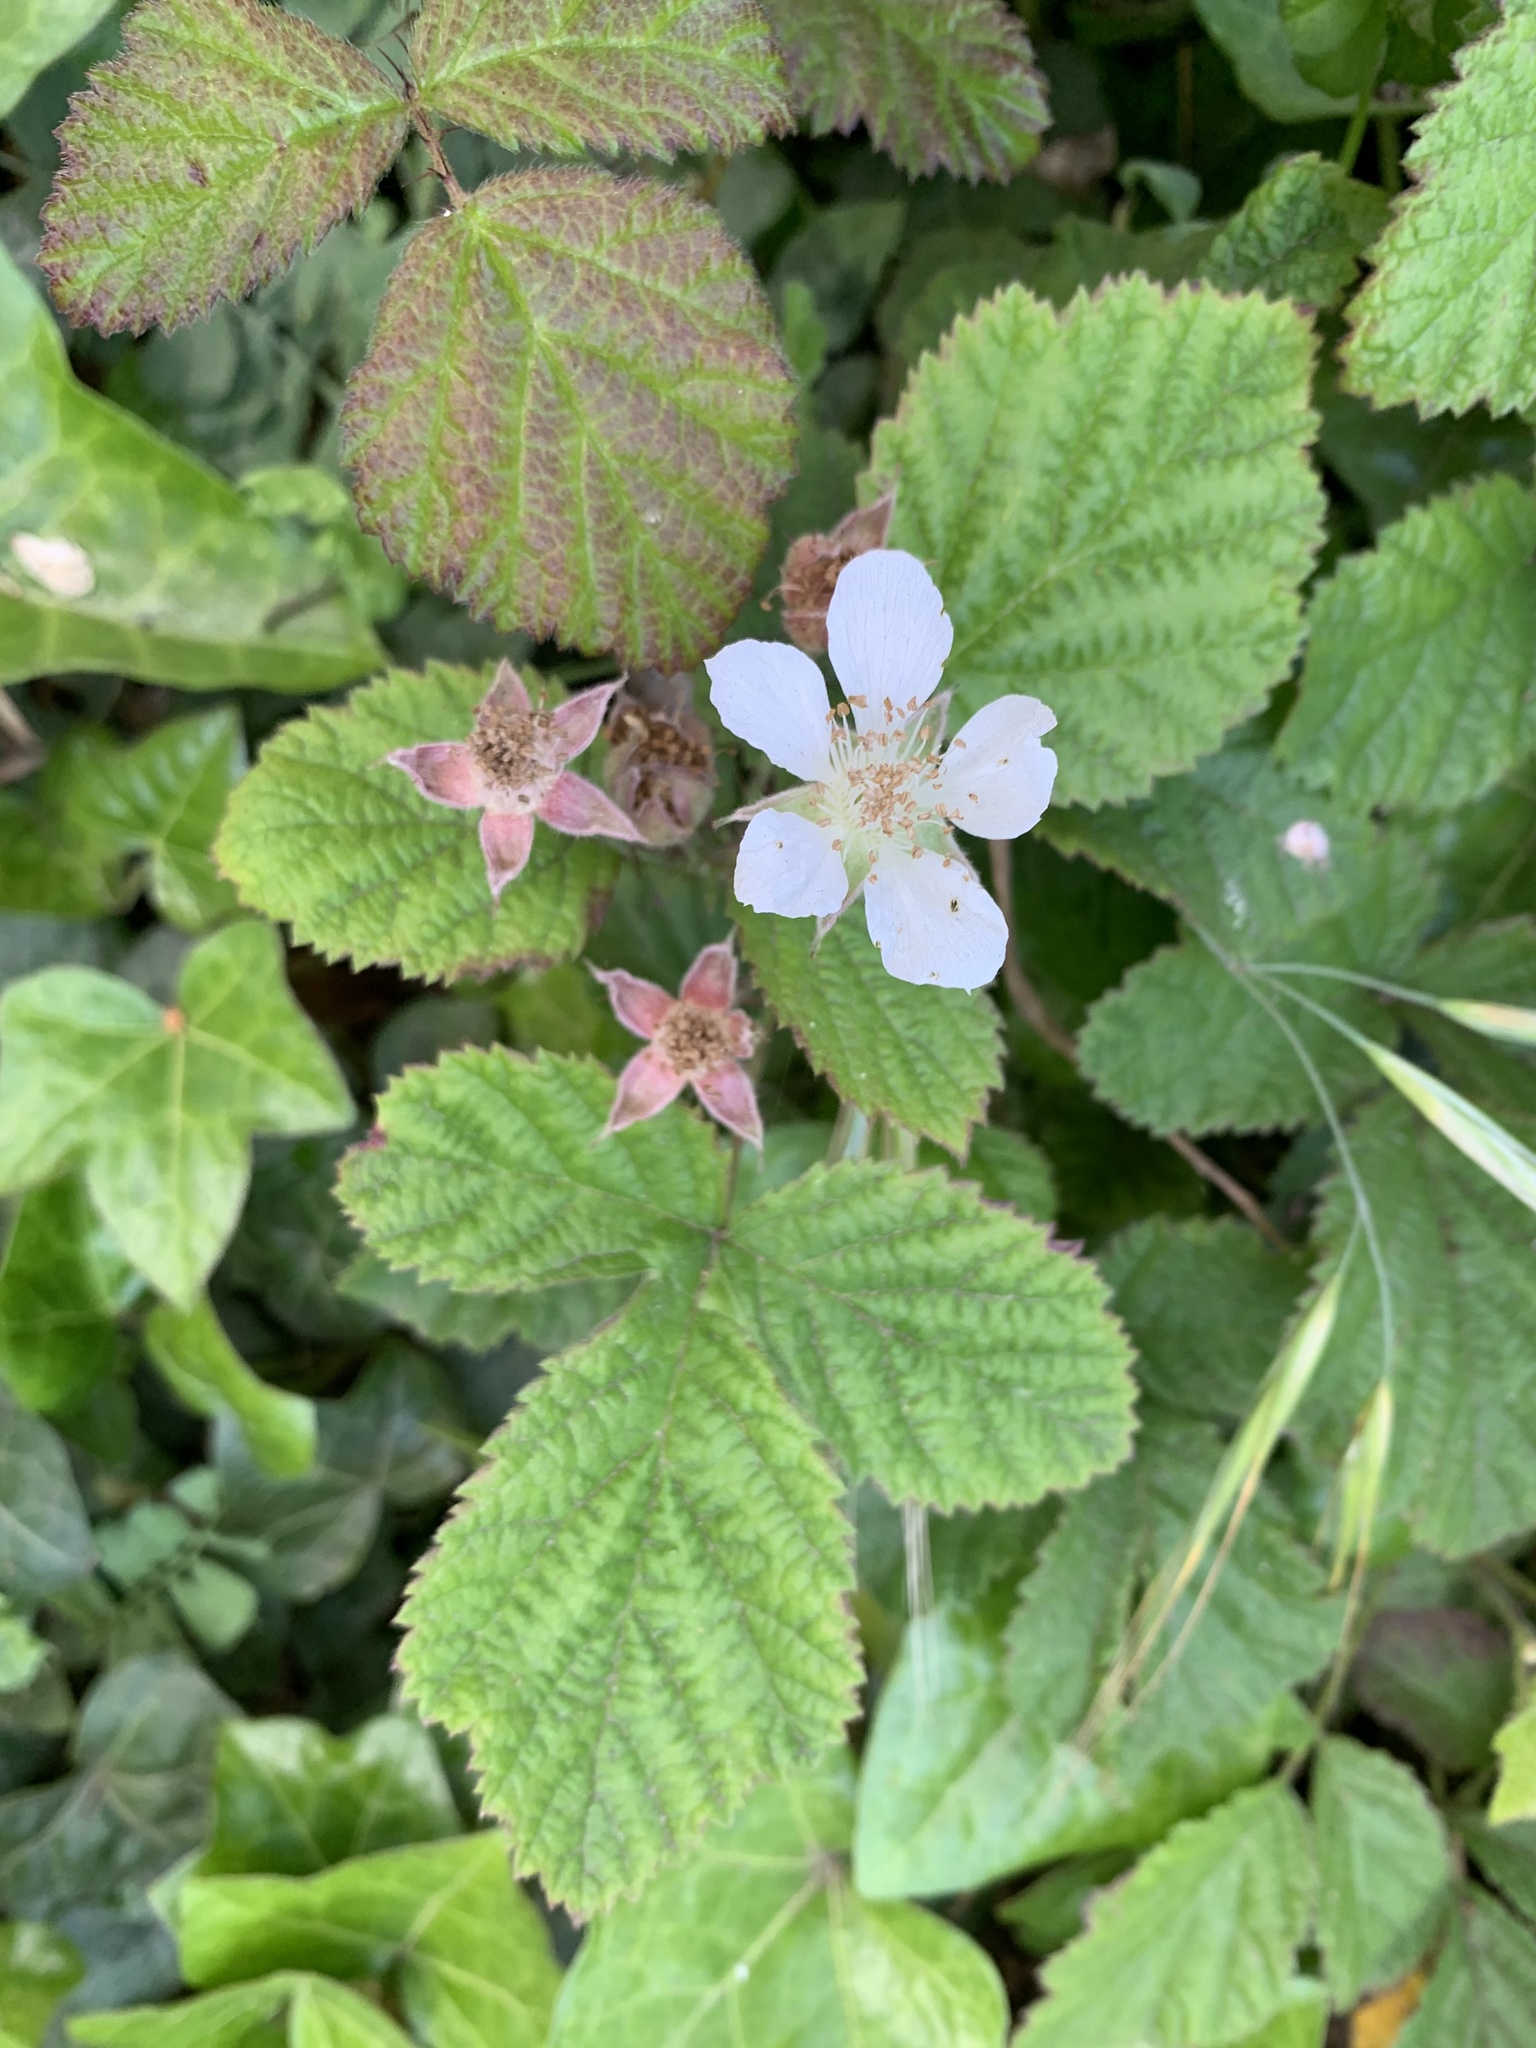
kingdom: Plantae
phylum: Tracheophyta
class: Magnoliopsida
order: Rosales
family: Rosaceae
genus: Rubus
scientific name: Rubus ursinus
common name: Pacific blackberry
